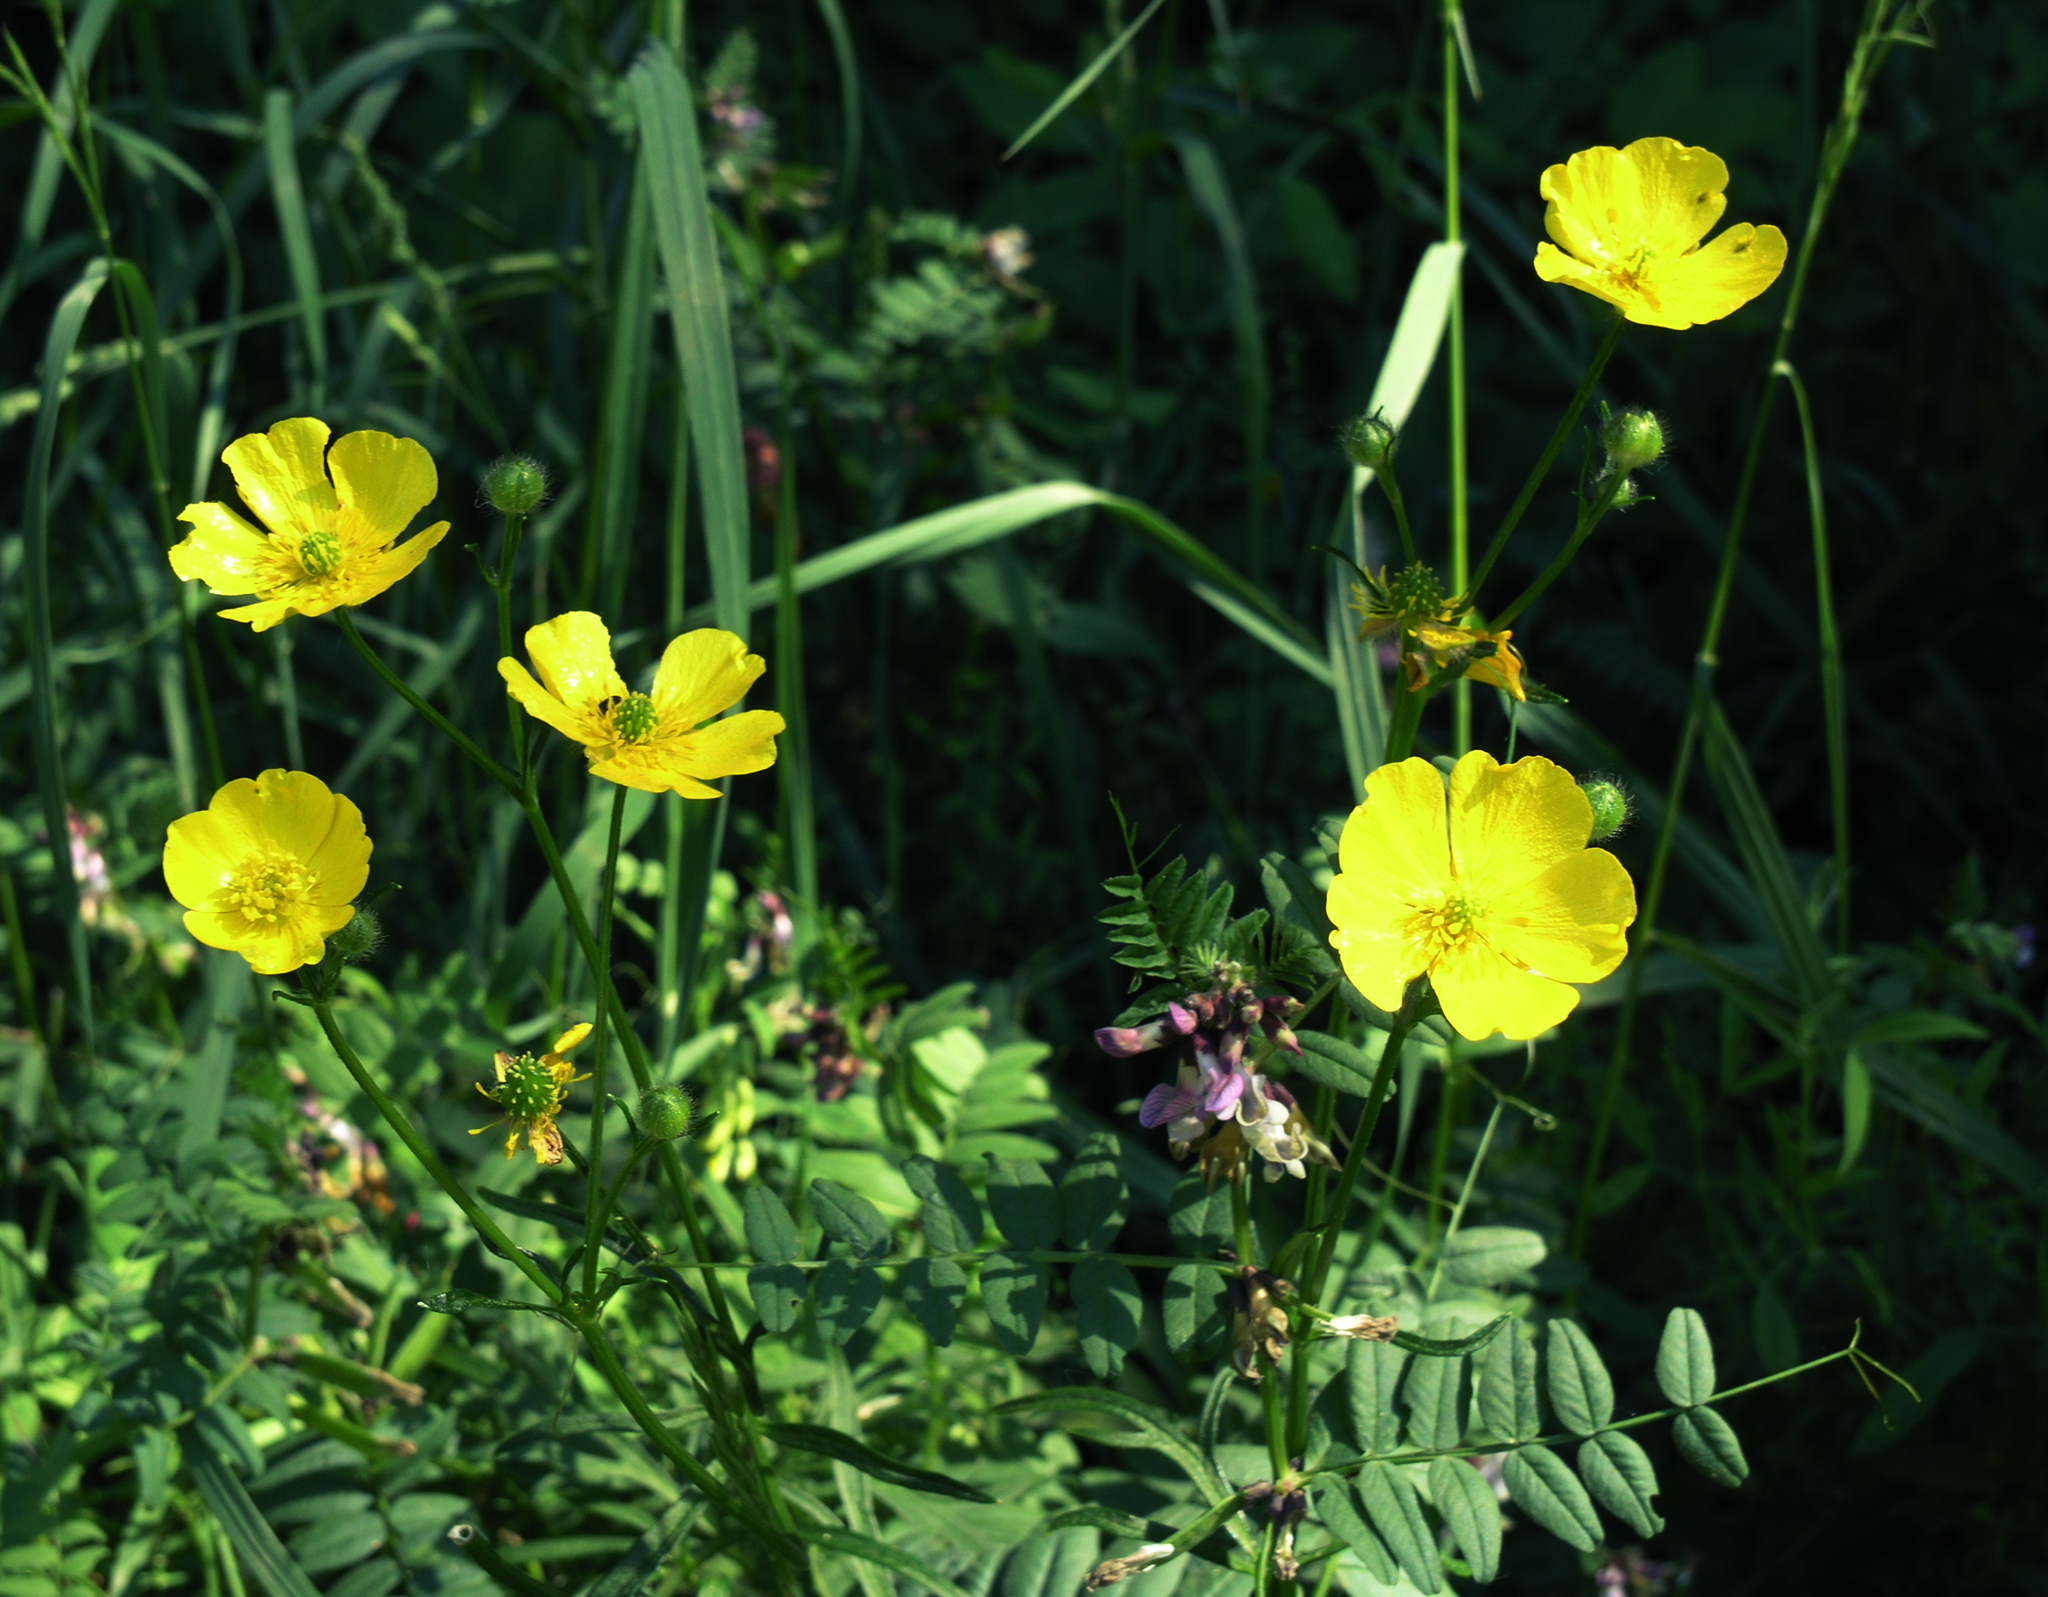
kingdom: Plantae
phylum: Tracheophyta
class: Magnoliopsida
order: Ranunculales
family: Ranunculaceae
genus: Ranunculus
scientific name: Ranunculus polyanthemos
